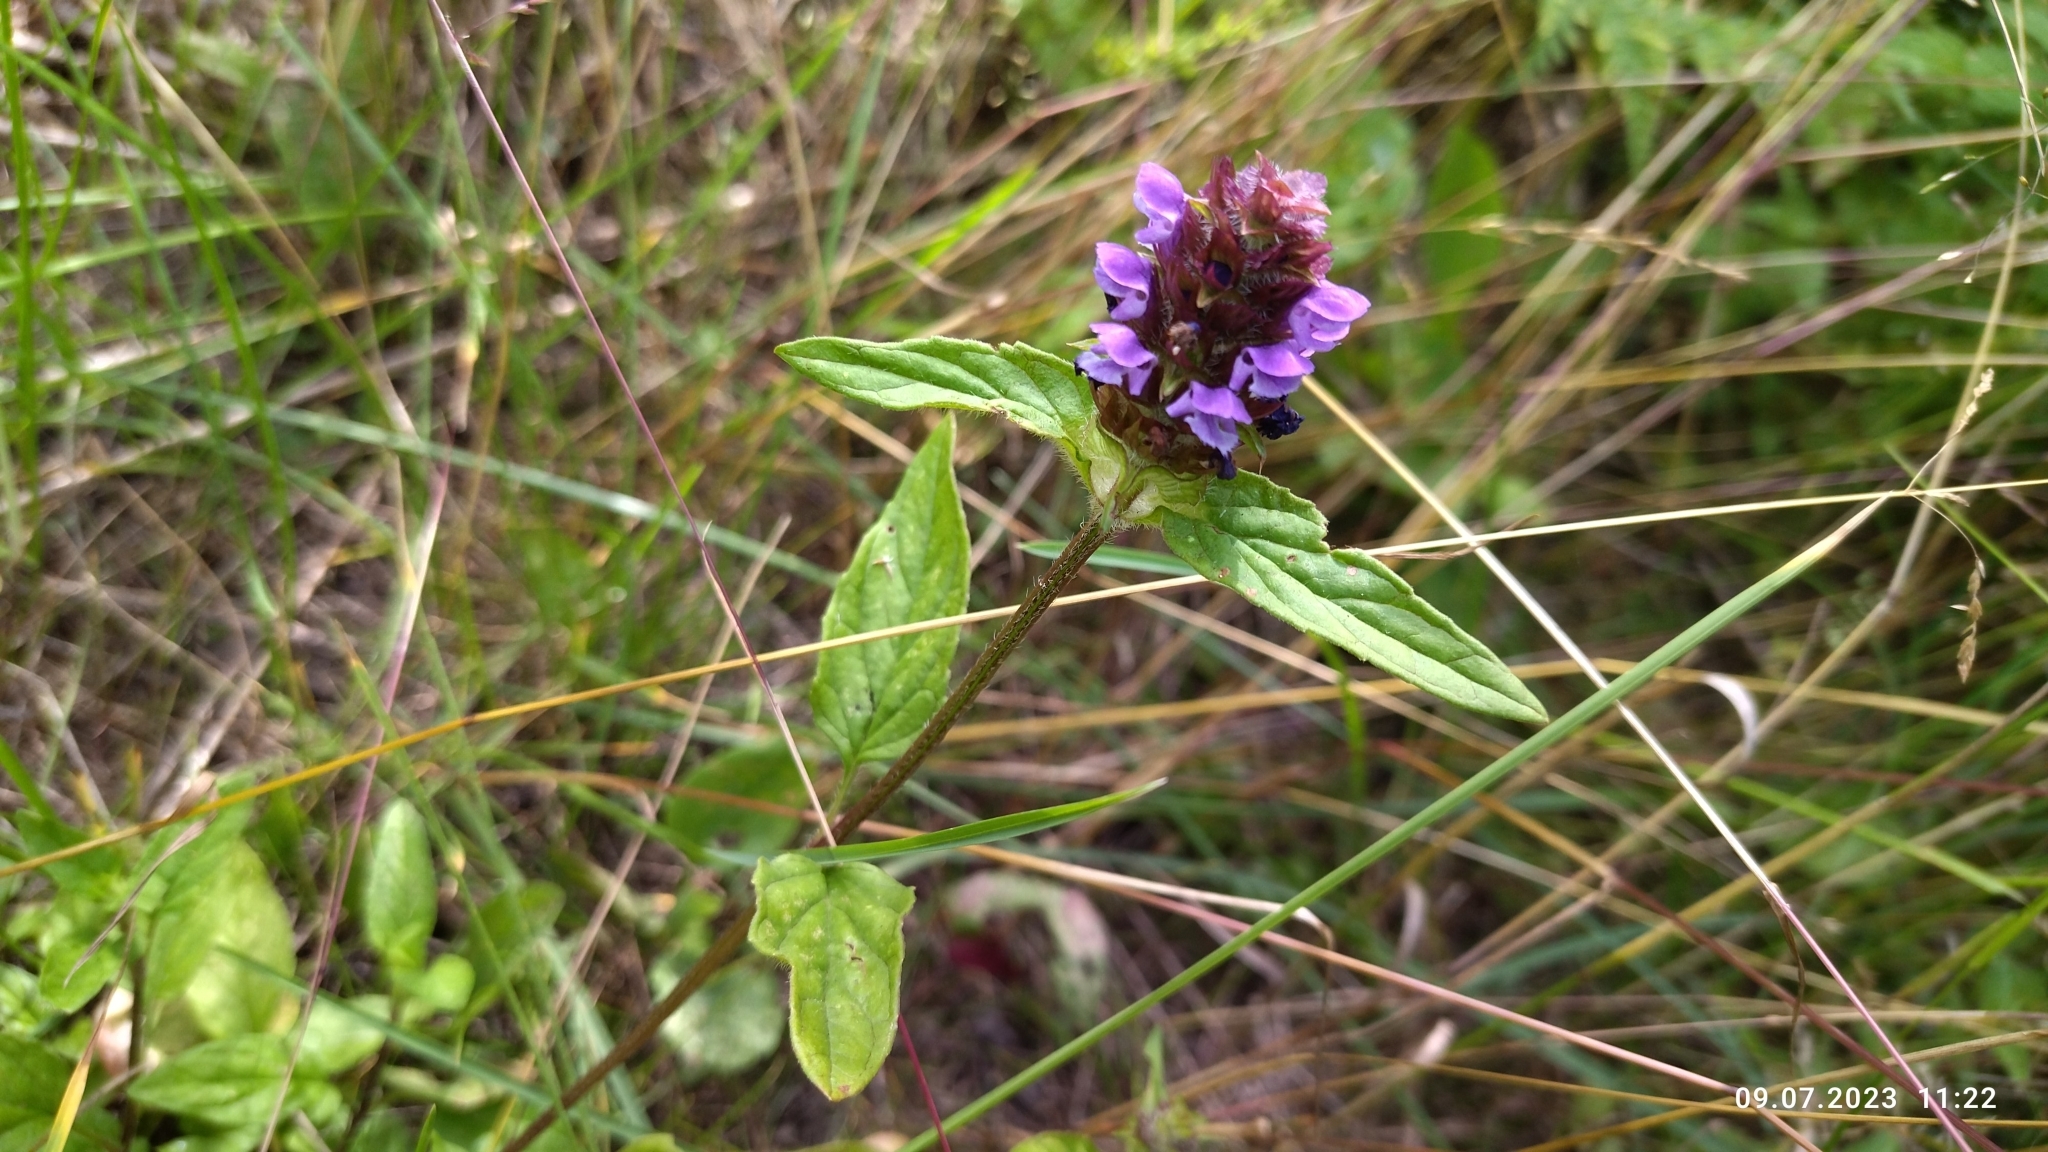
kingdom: Plantae
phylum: Tracheophyta
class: Magnoliopsida
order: Lamiales
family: Lamiaceae
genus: Prunella
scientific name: Prunella vulgaris
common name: Heal-all
